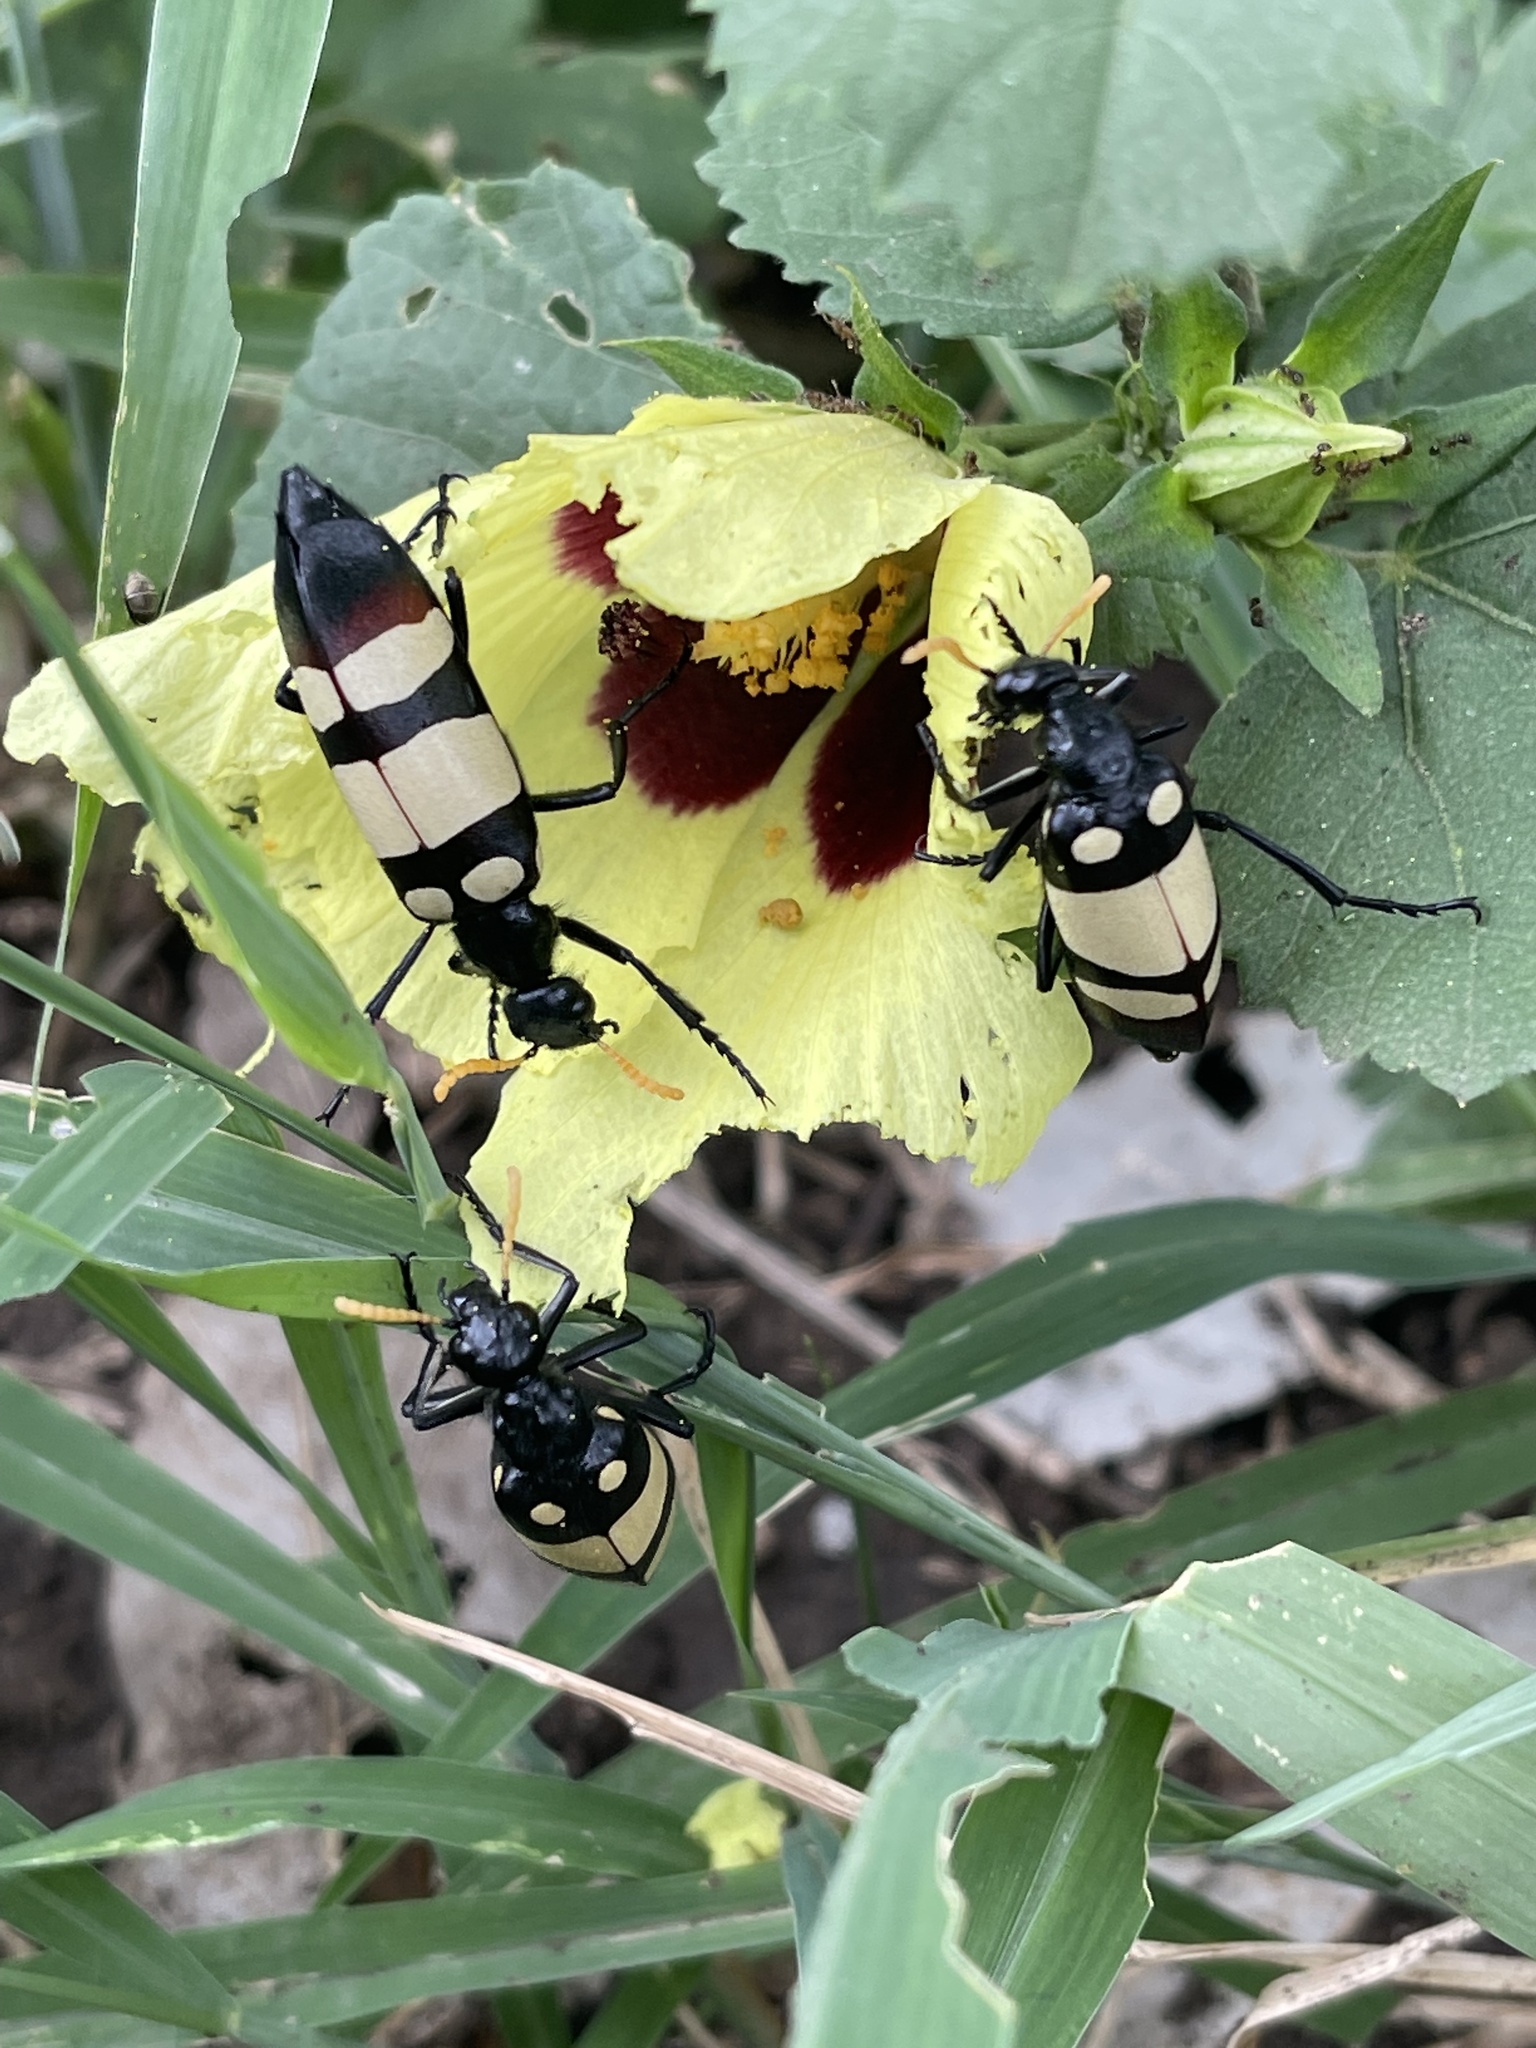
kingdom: Animalia
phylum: Arthropoda
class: Insecta
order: Coleoptera
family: Meloidae
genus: Hycleus
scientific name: Hycleus
